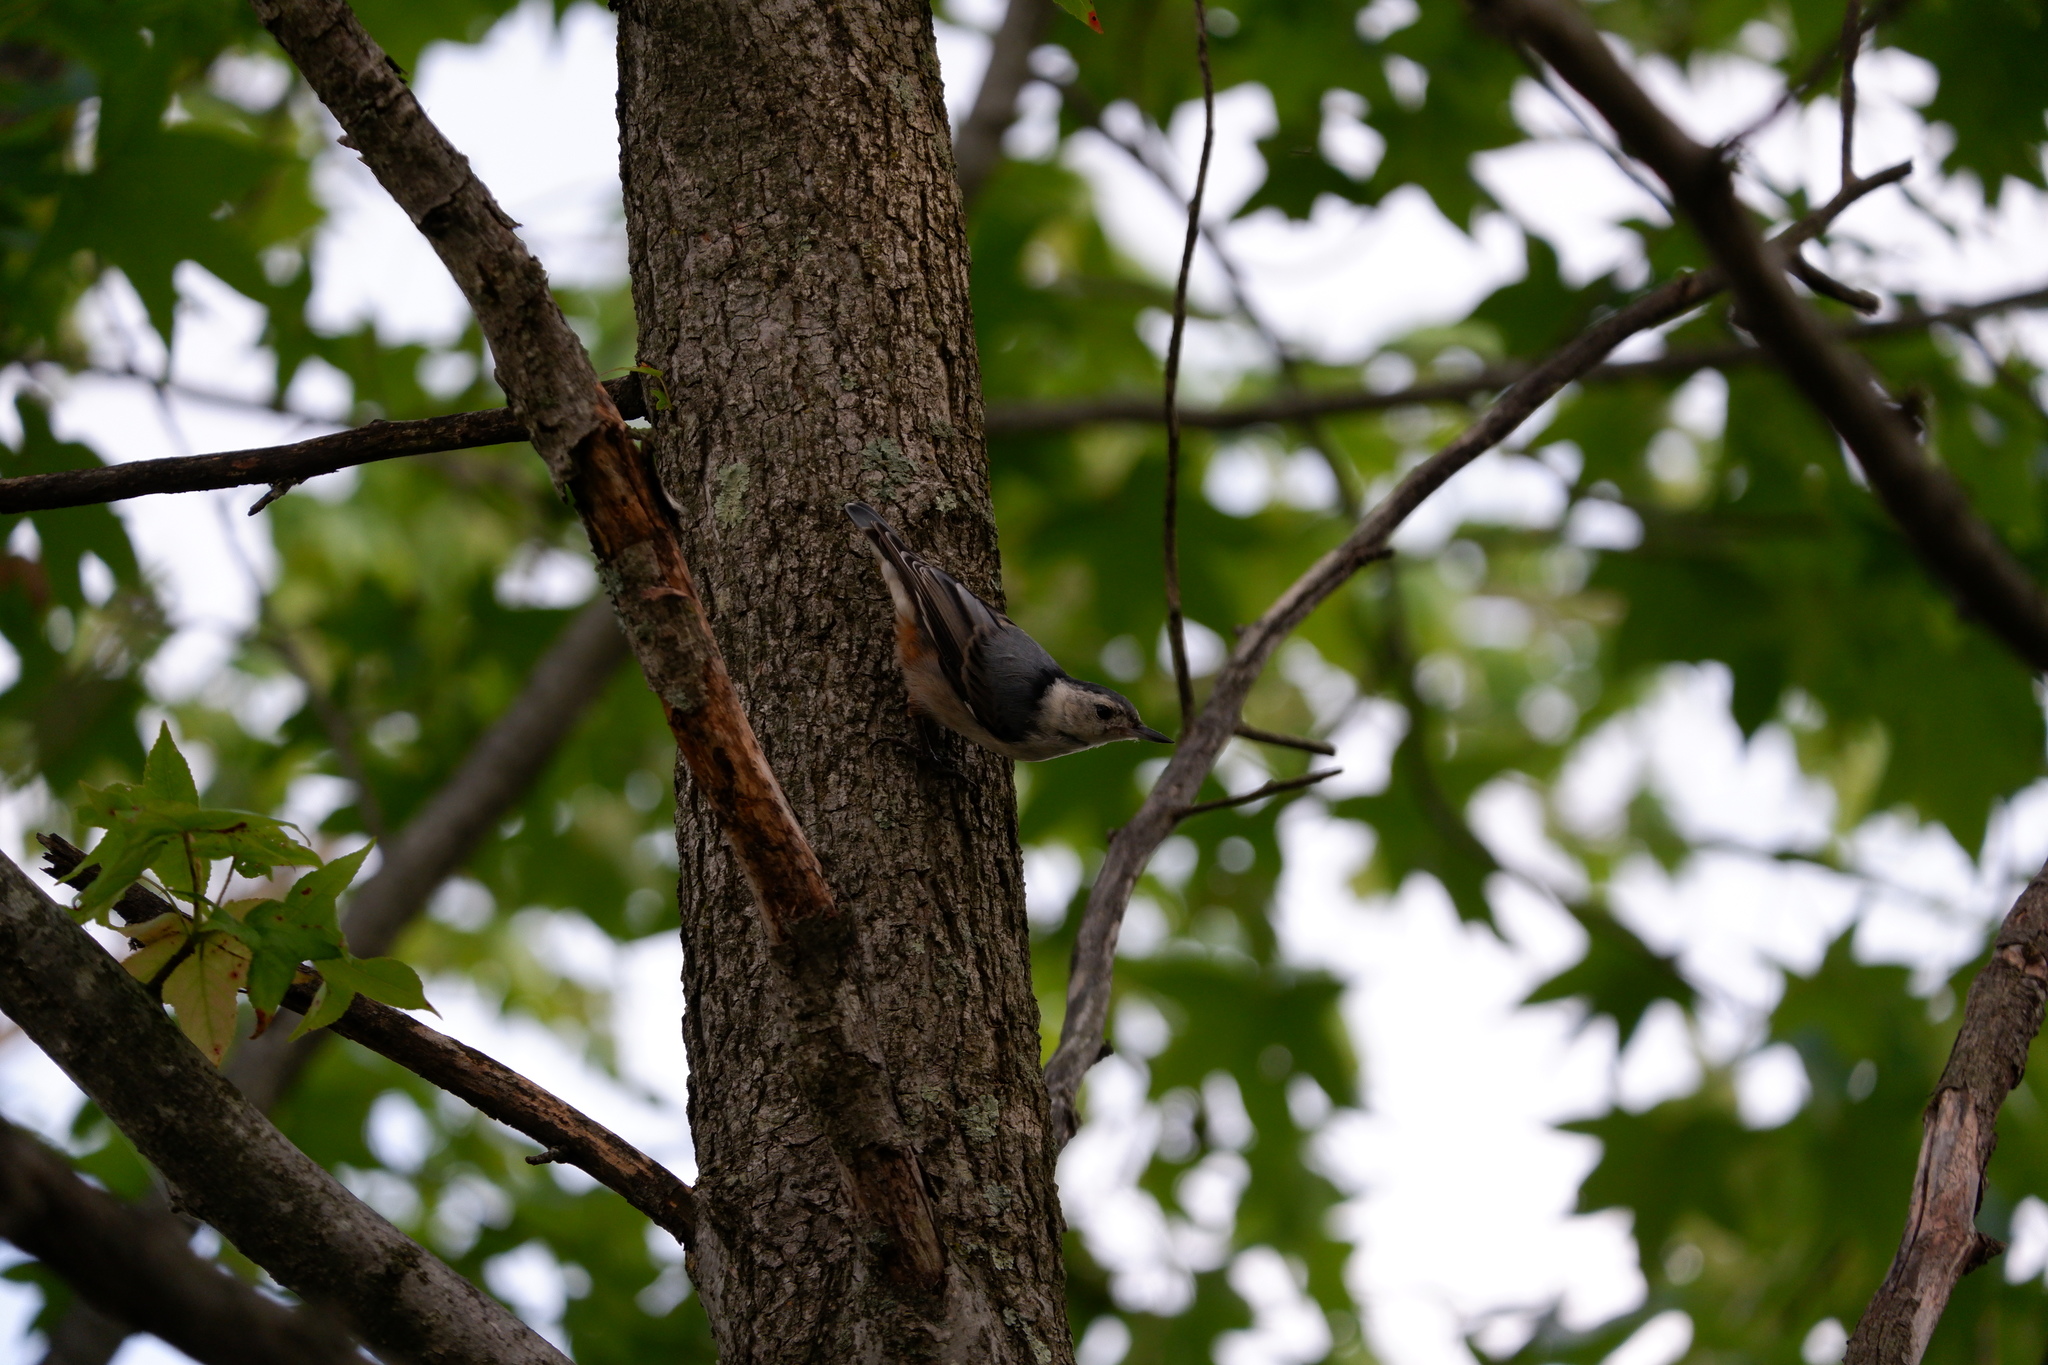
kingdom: Animalia
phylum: Chordata
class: Aves
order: Passeriformes
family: Sittidae
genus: Sitta
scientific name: Sitta carolinensis
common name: White-breasted nuthatch
